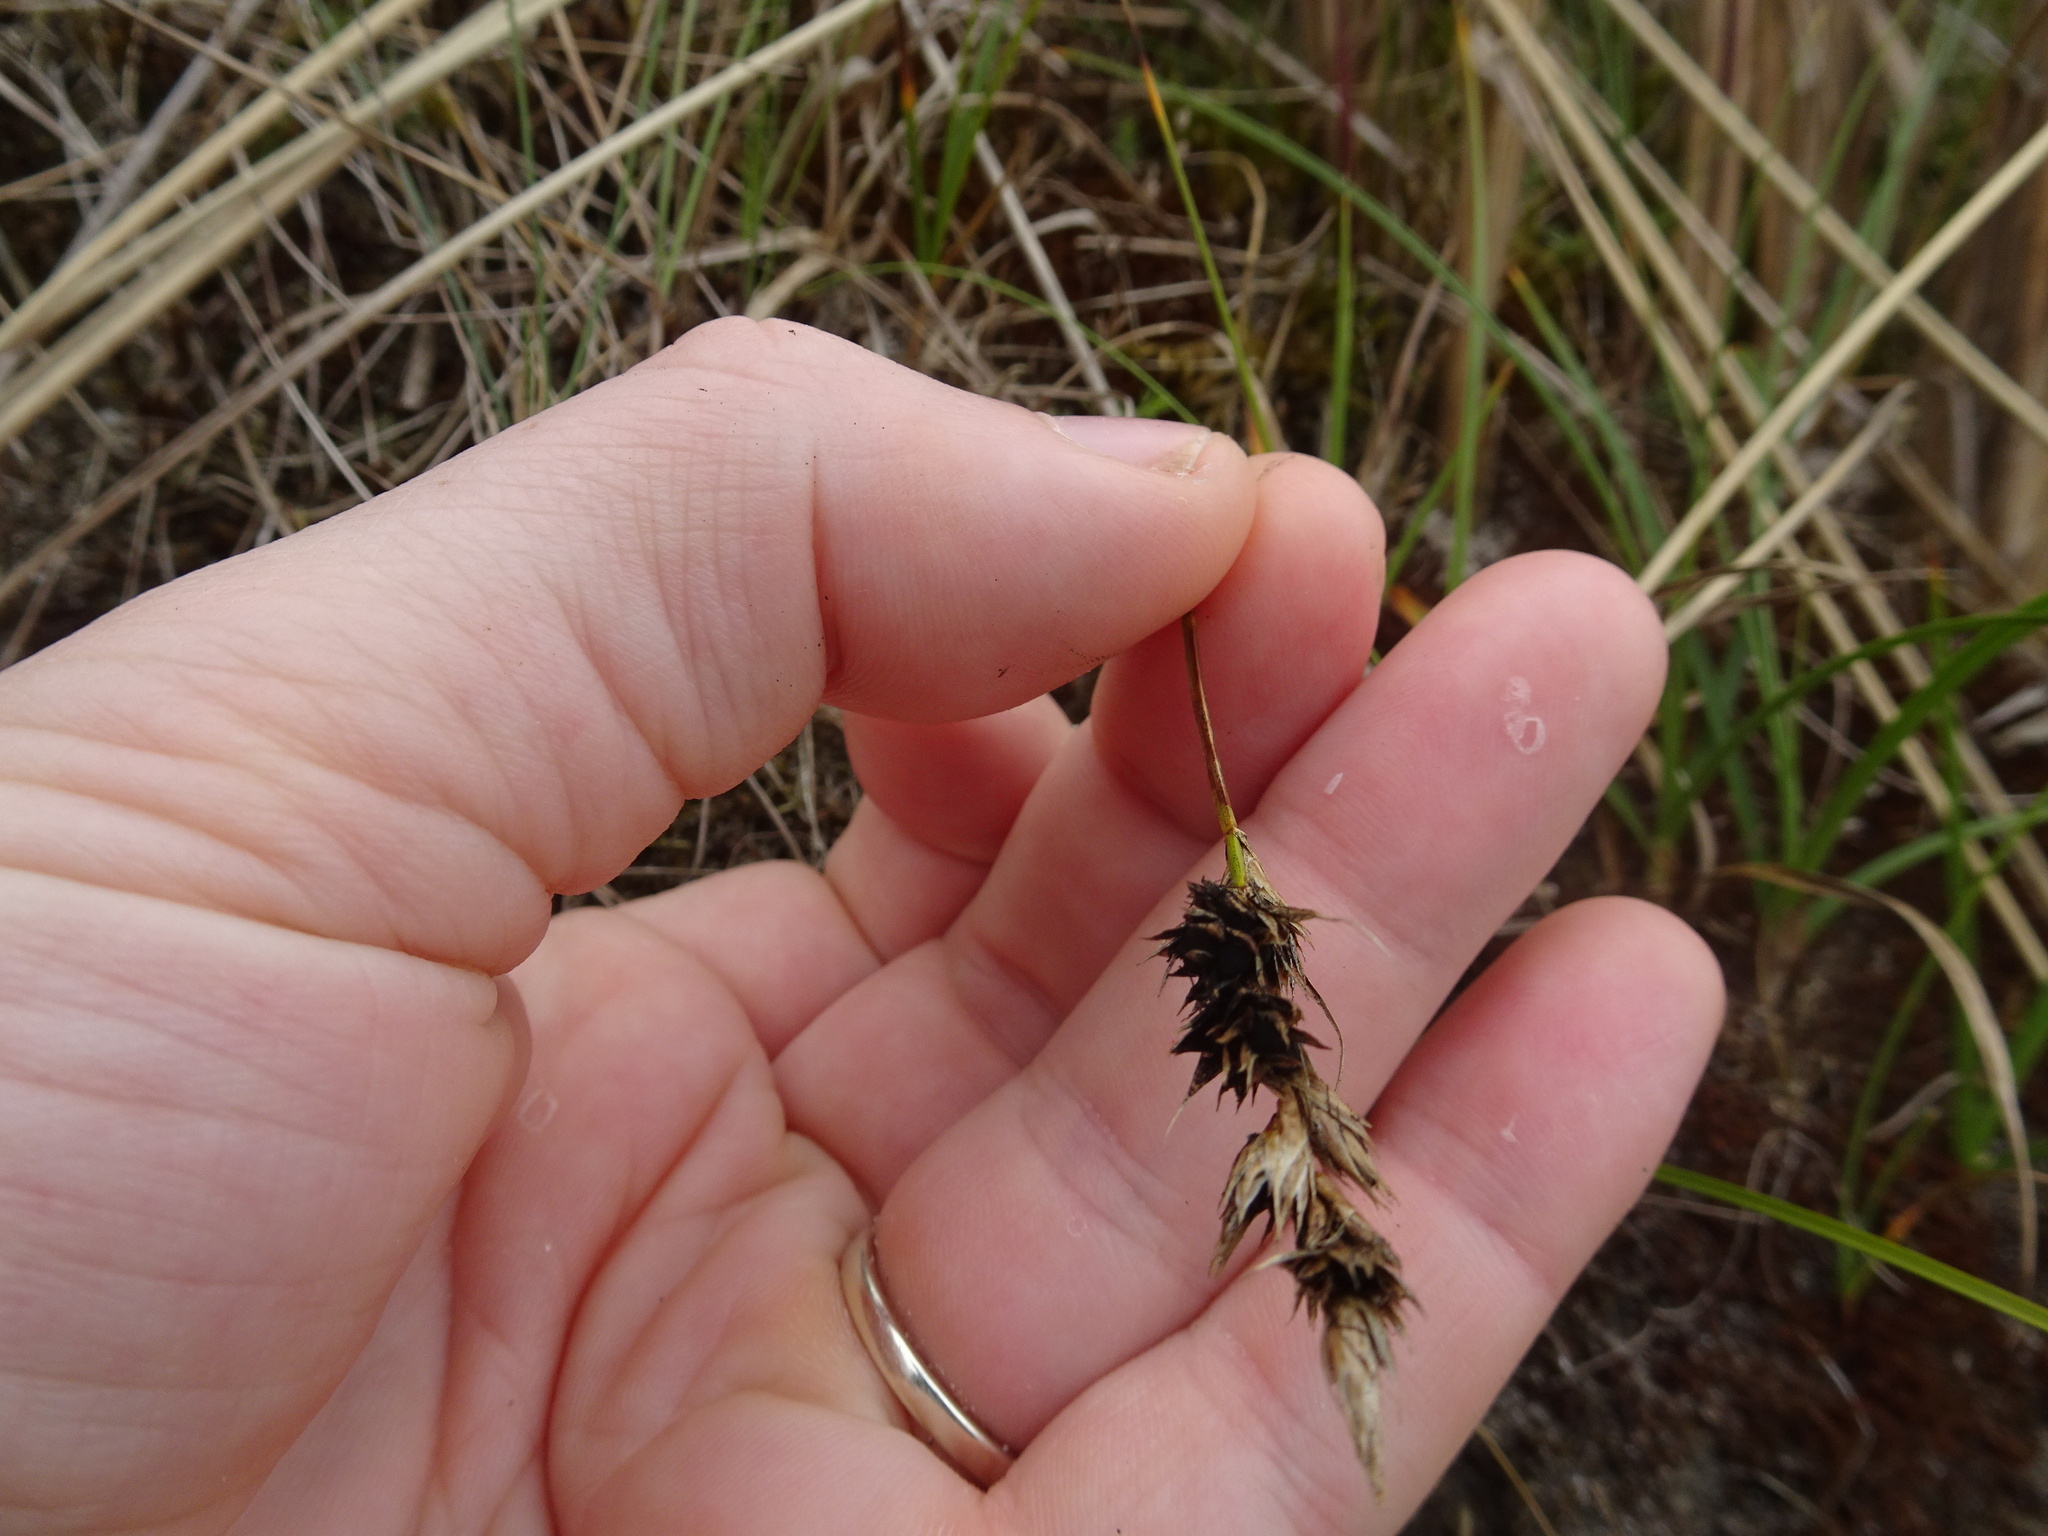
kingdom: Plantae
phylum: Tracheophyta
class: Liliopsida
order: Poales
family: Cyperaceae
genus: Carex
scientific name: Carex arenaria
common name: Sand sedge
